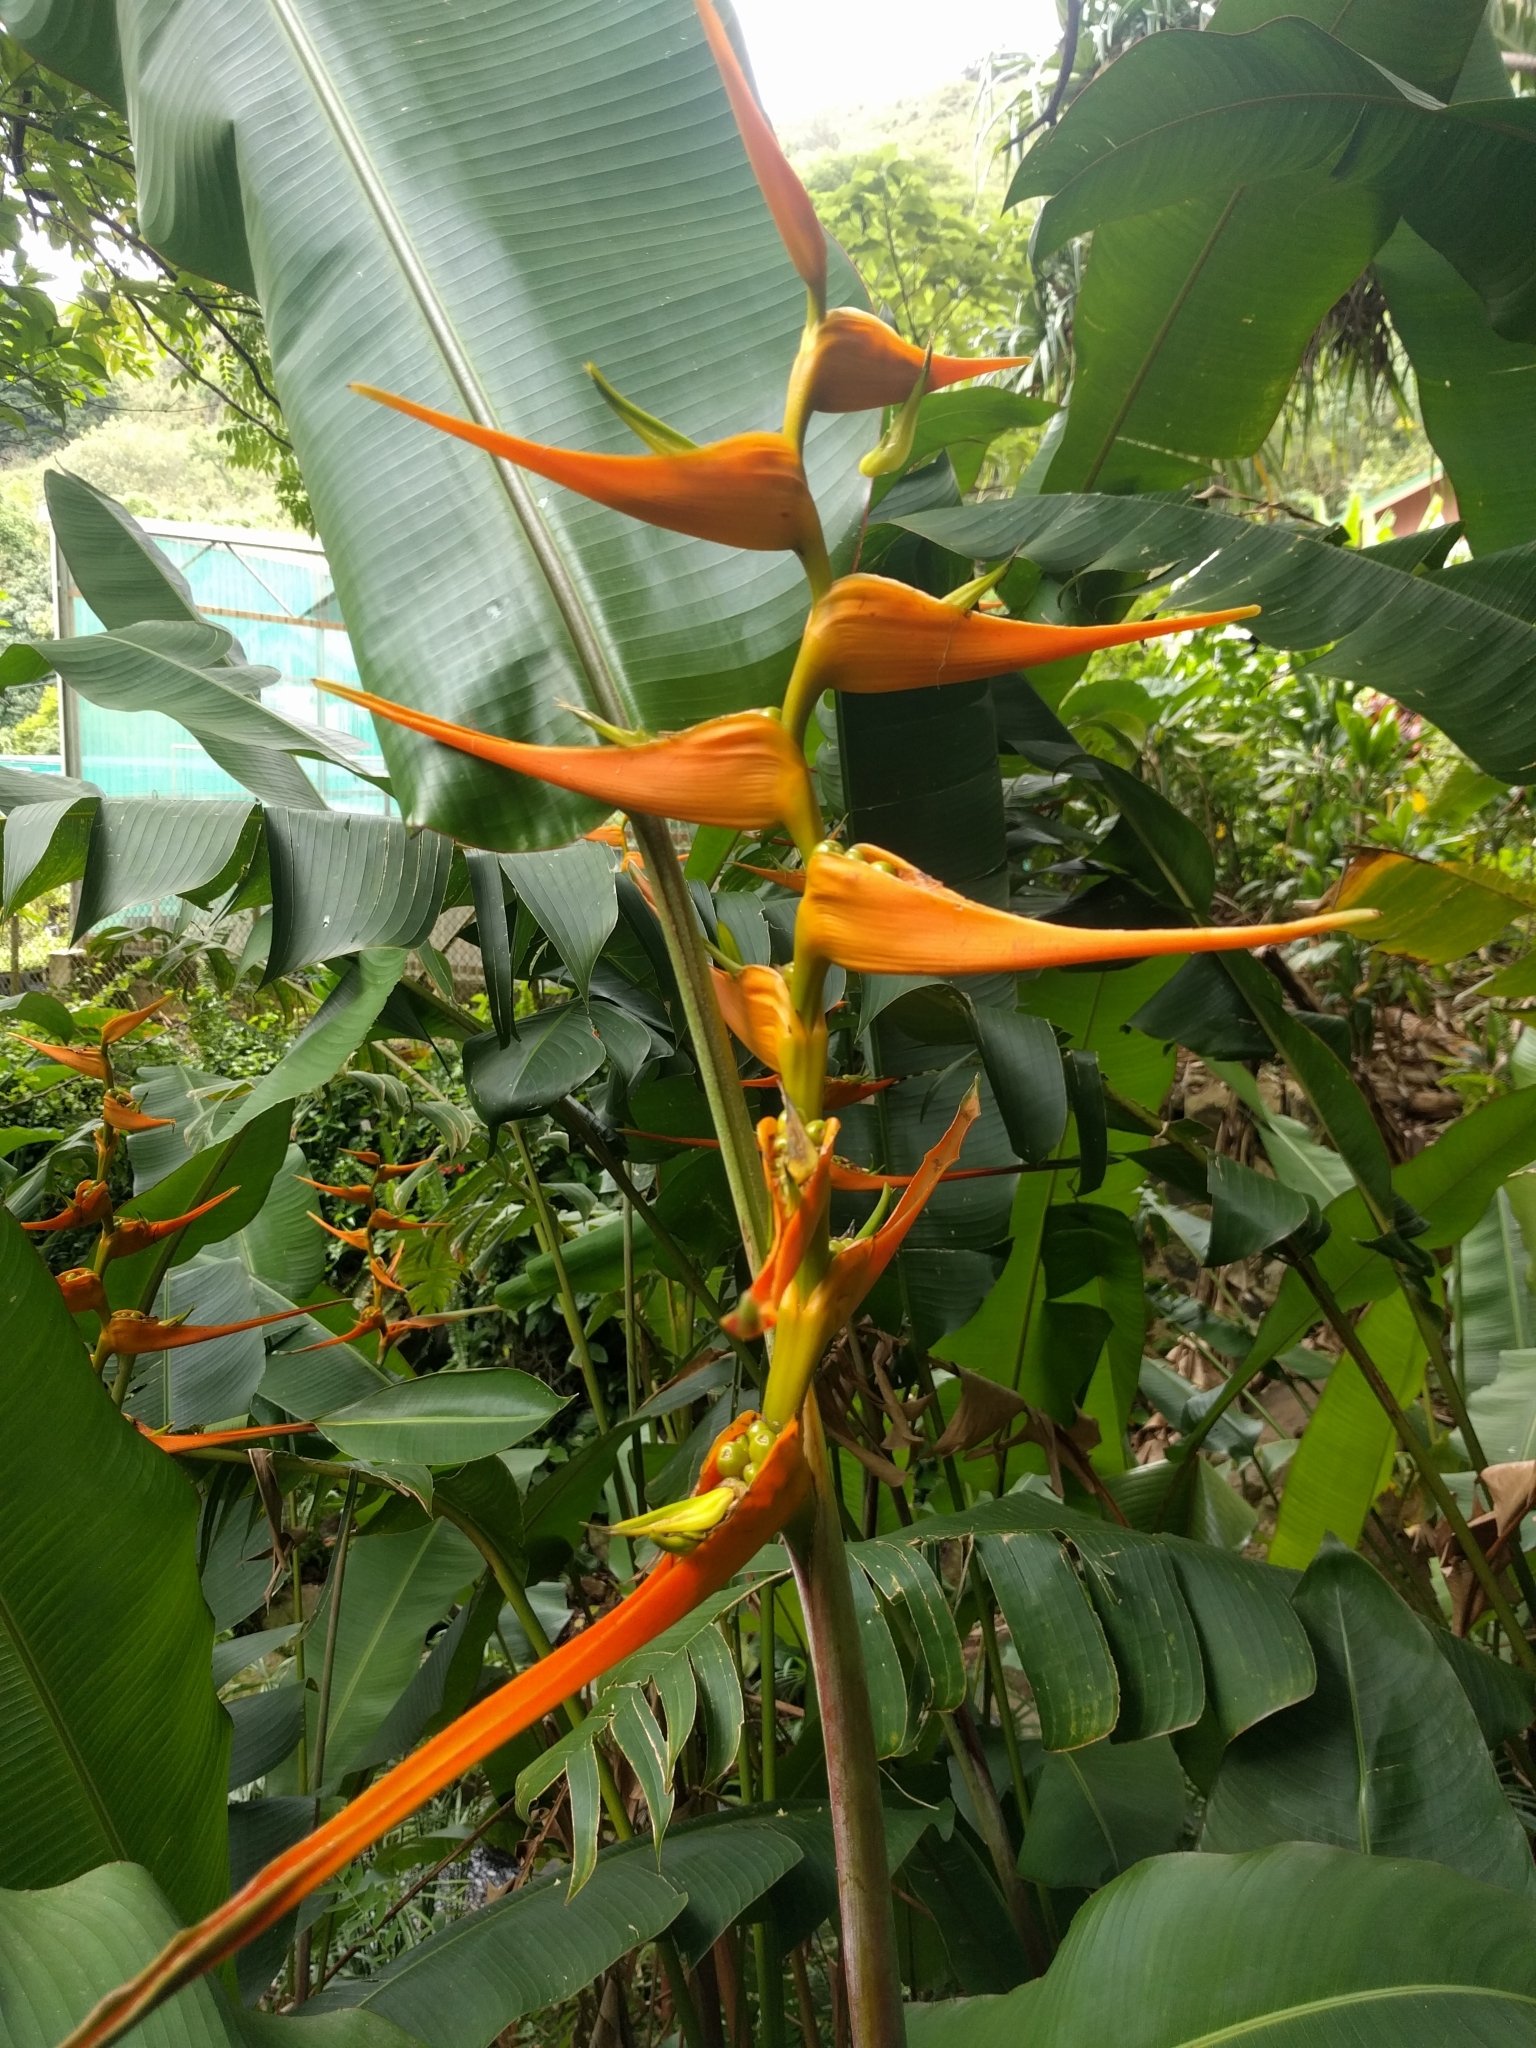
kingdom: Plantae
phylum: Tracheophyta
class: Liliopsida
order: Zingiberales
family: Heliconiaceae
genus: Heliconia
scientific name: Heliconia latispatha
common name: Expanded lobsterclaw
